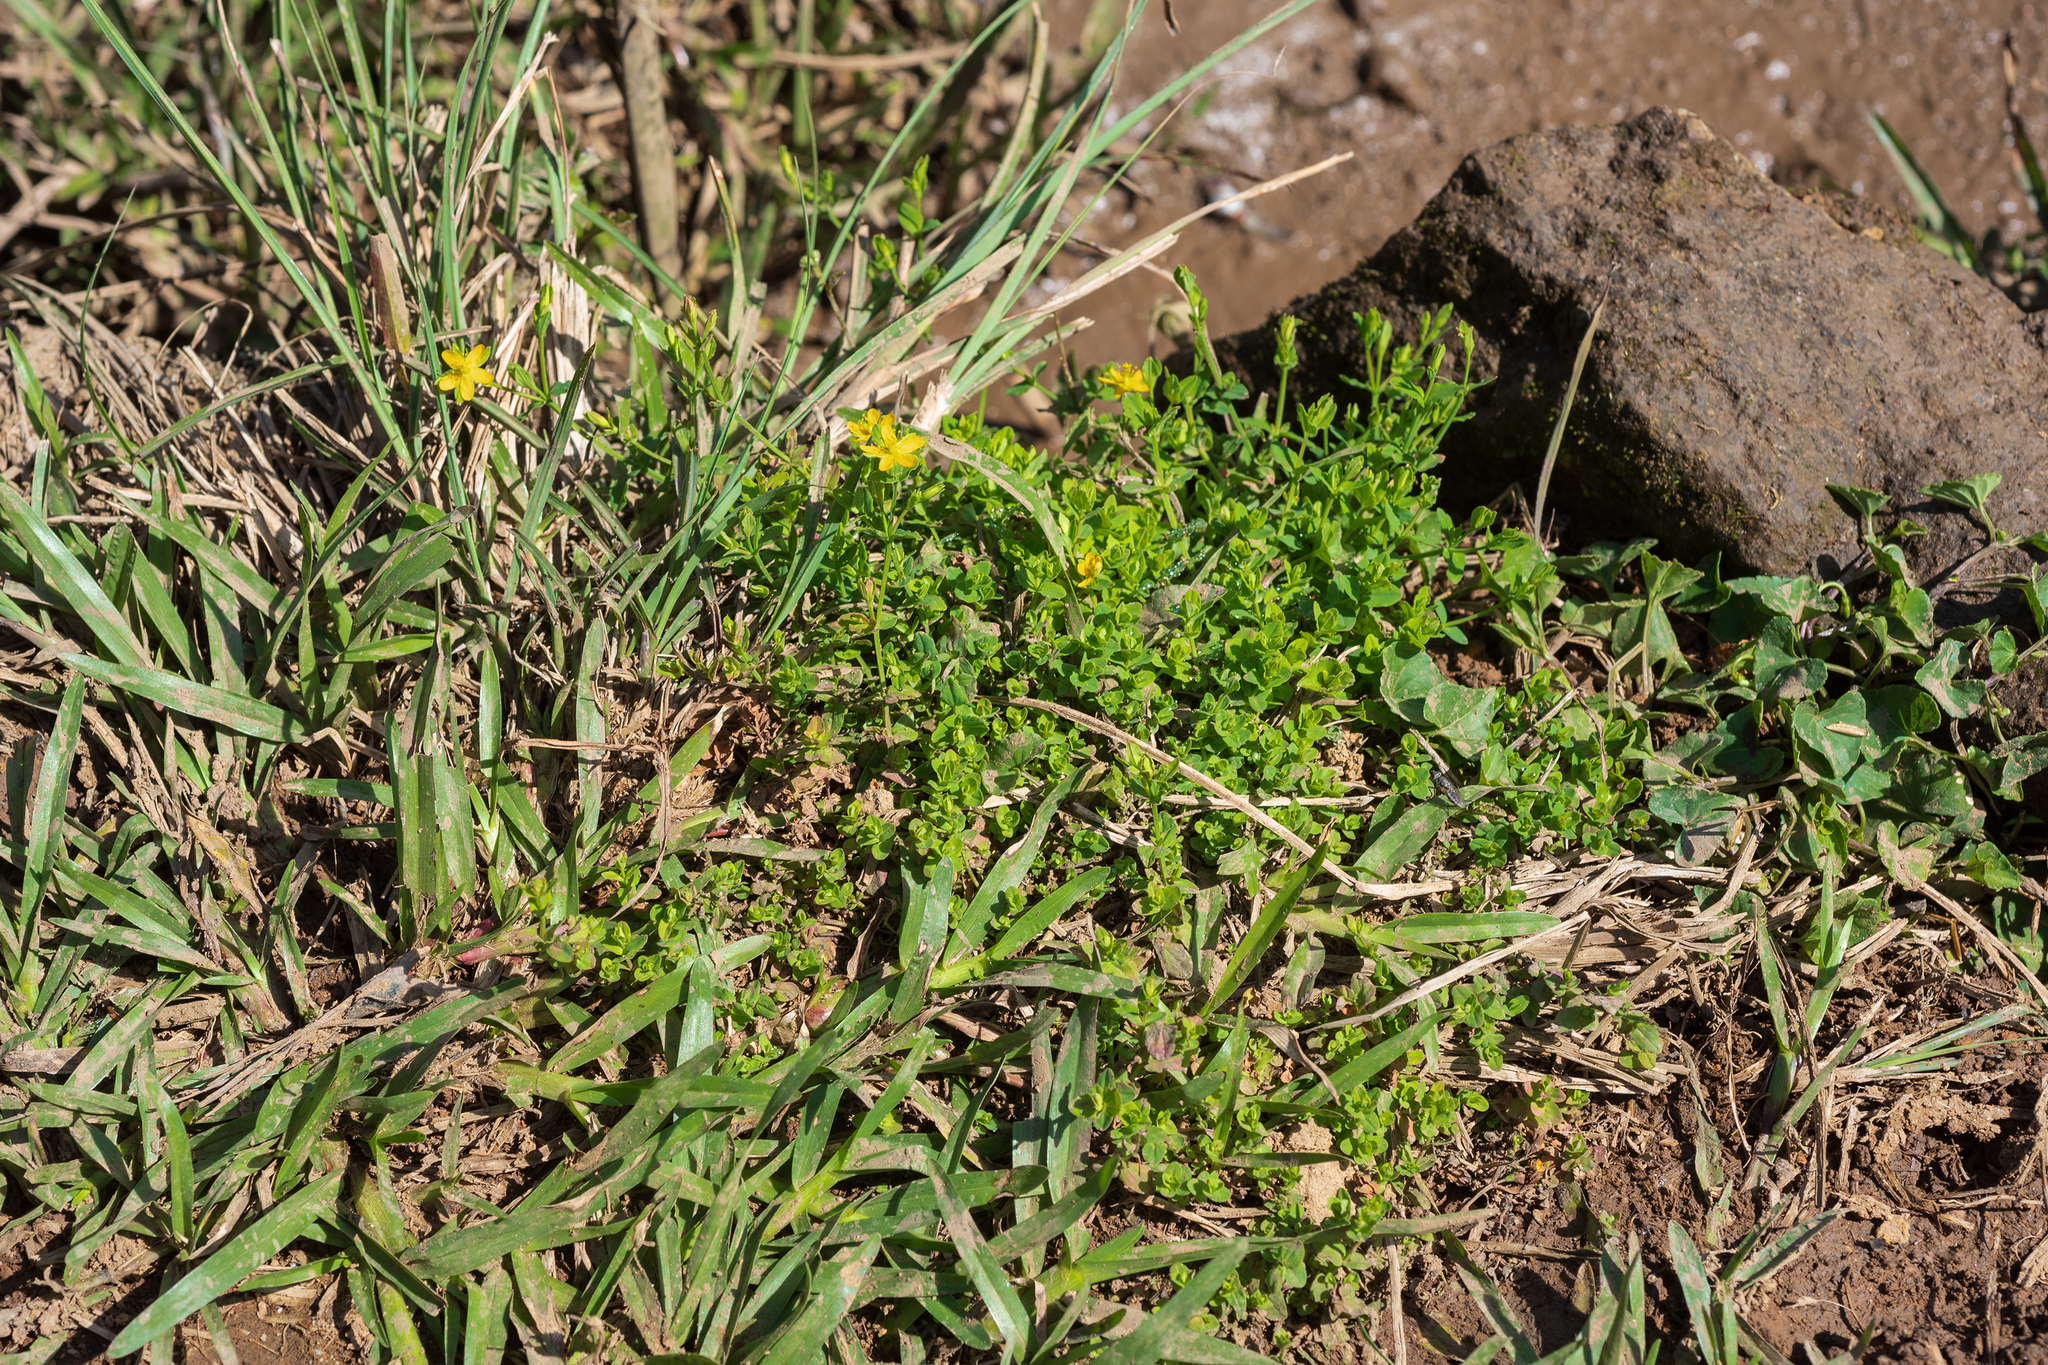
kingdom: Plantae
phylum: Tracheophyta
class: Magnoliopsida
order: Malpighiales
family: Hypericaceae
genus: Hypericum
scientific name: Hypericum japonicum
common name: Matted st. john's-wort
